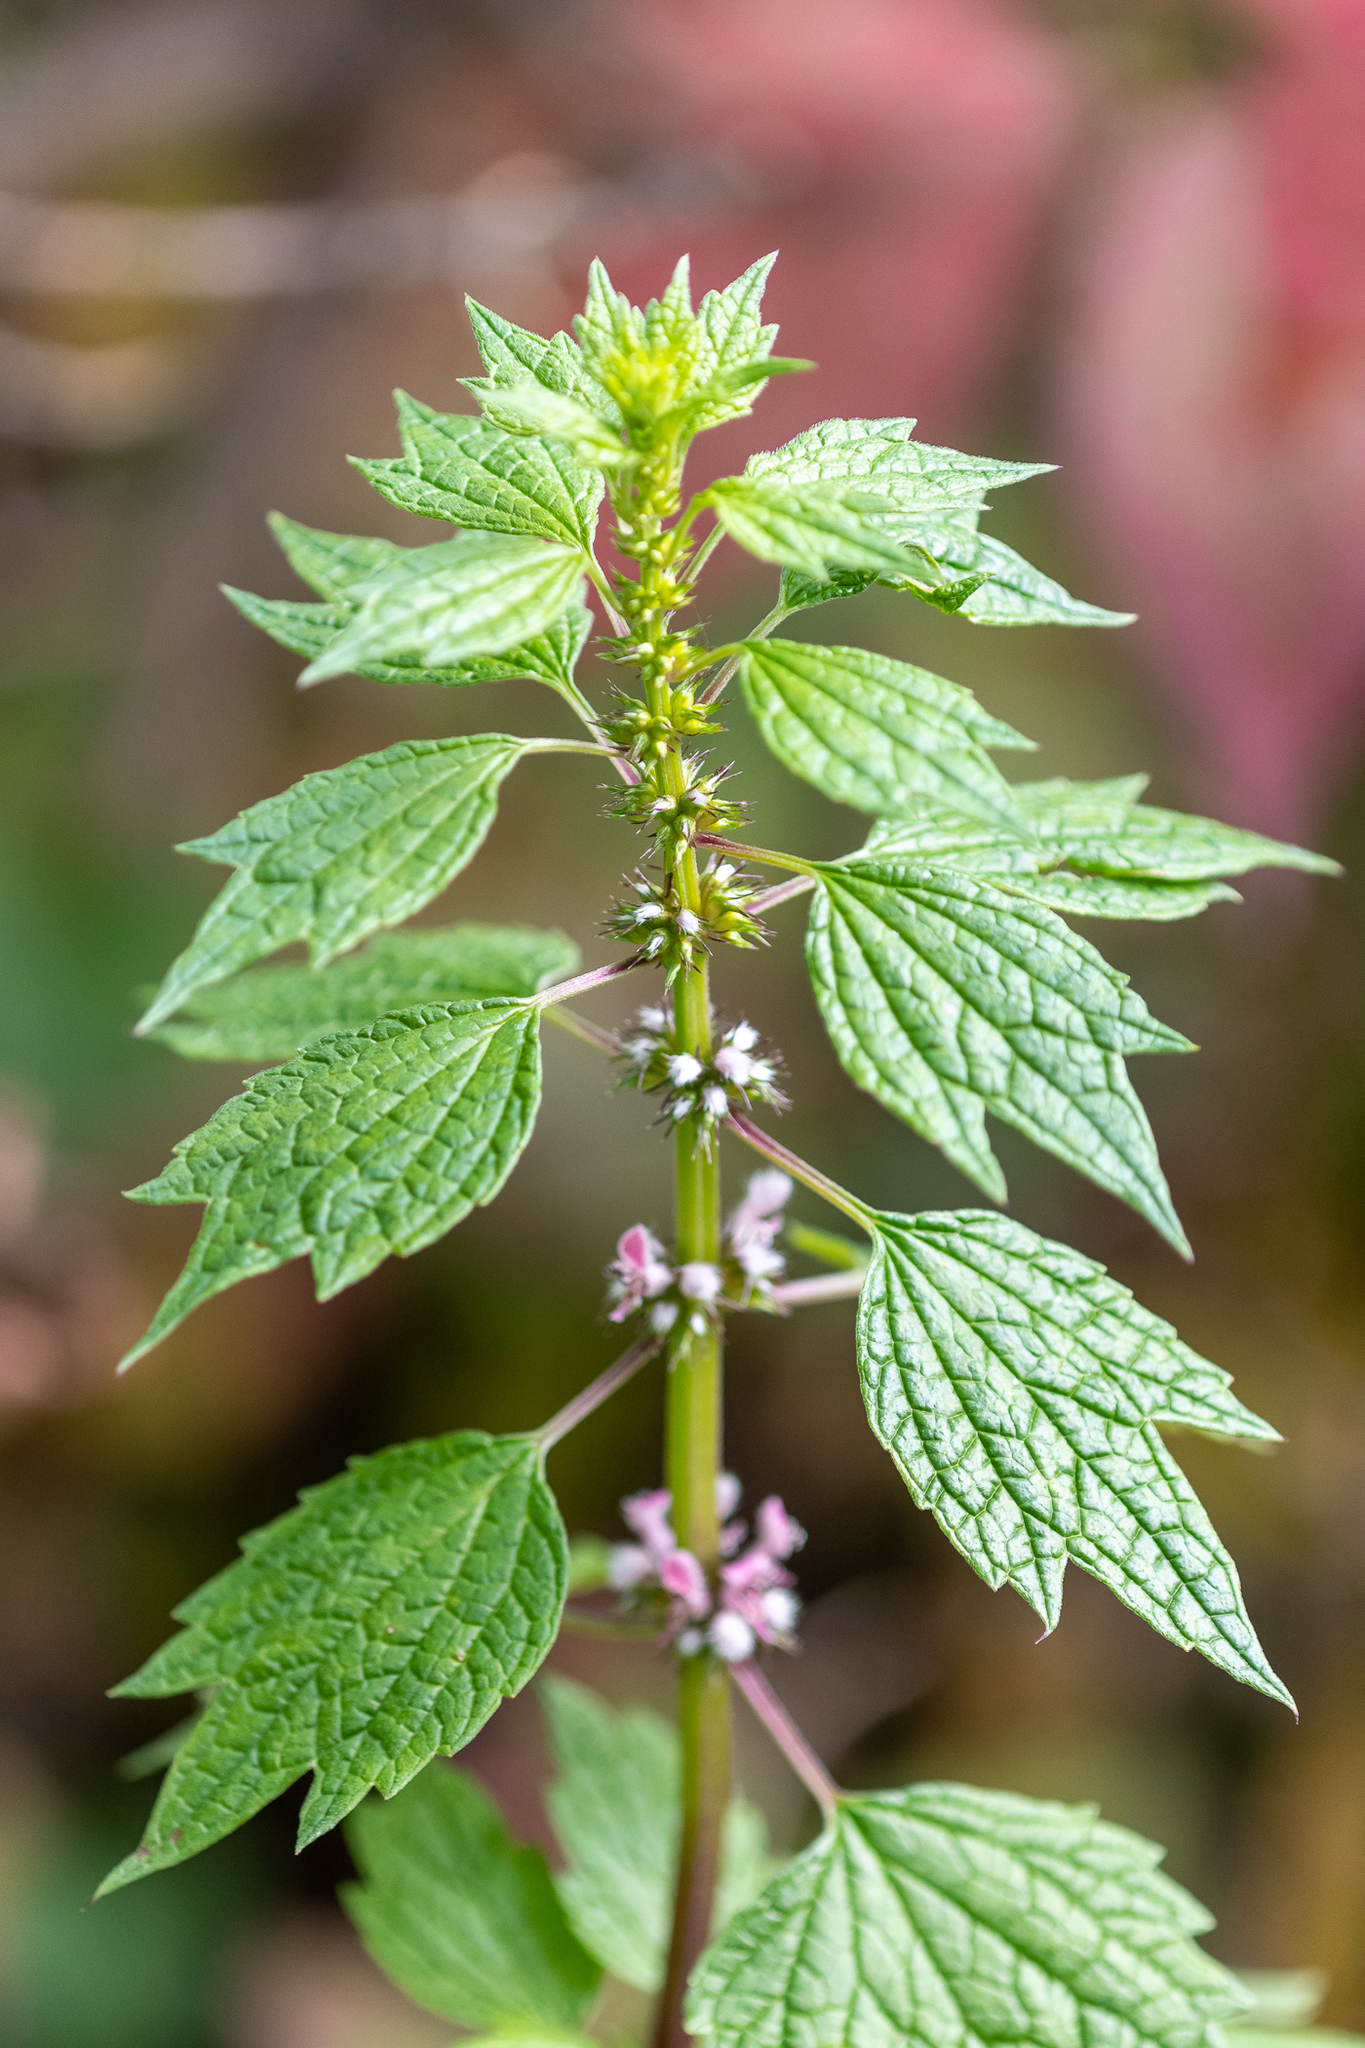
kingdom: Plantae
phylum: Tracheophyta
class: Magnoliopsida
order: Lamiales
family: Lamiaceae
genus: Leonurus
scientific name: Leonurus cardiaca
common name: Motherwort
